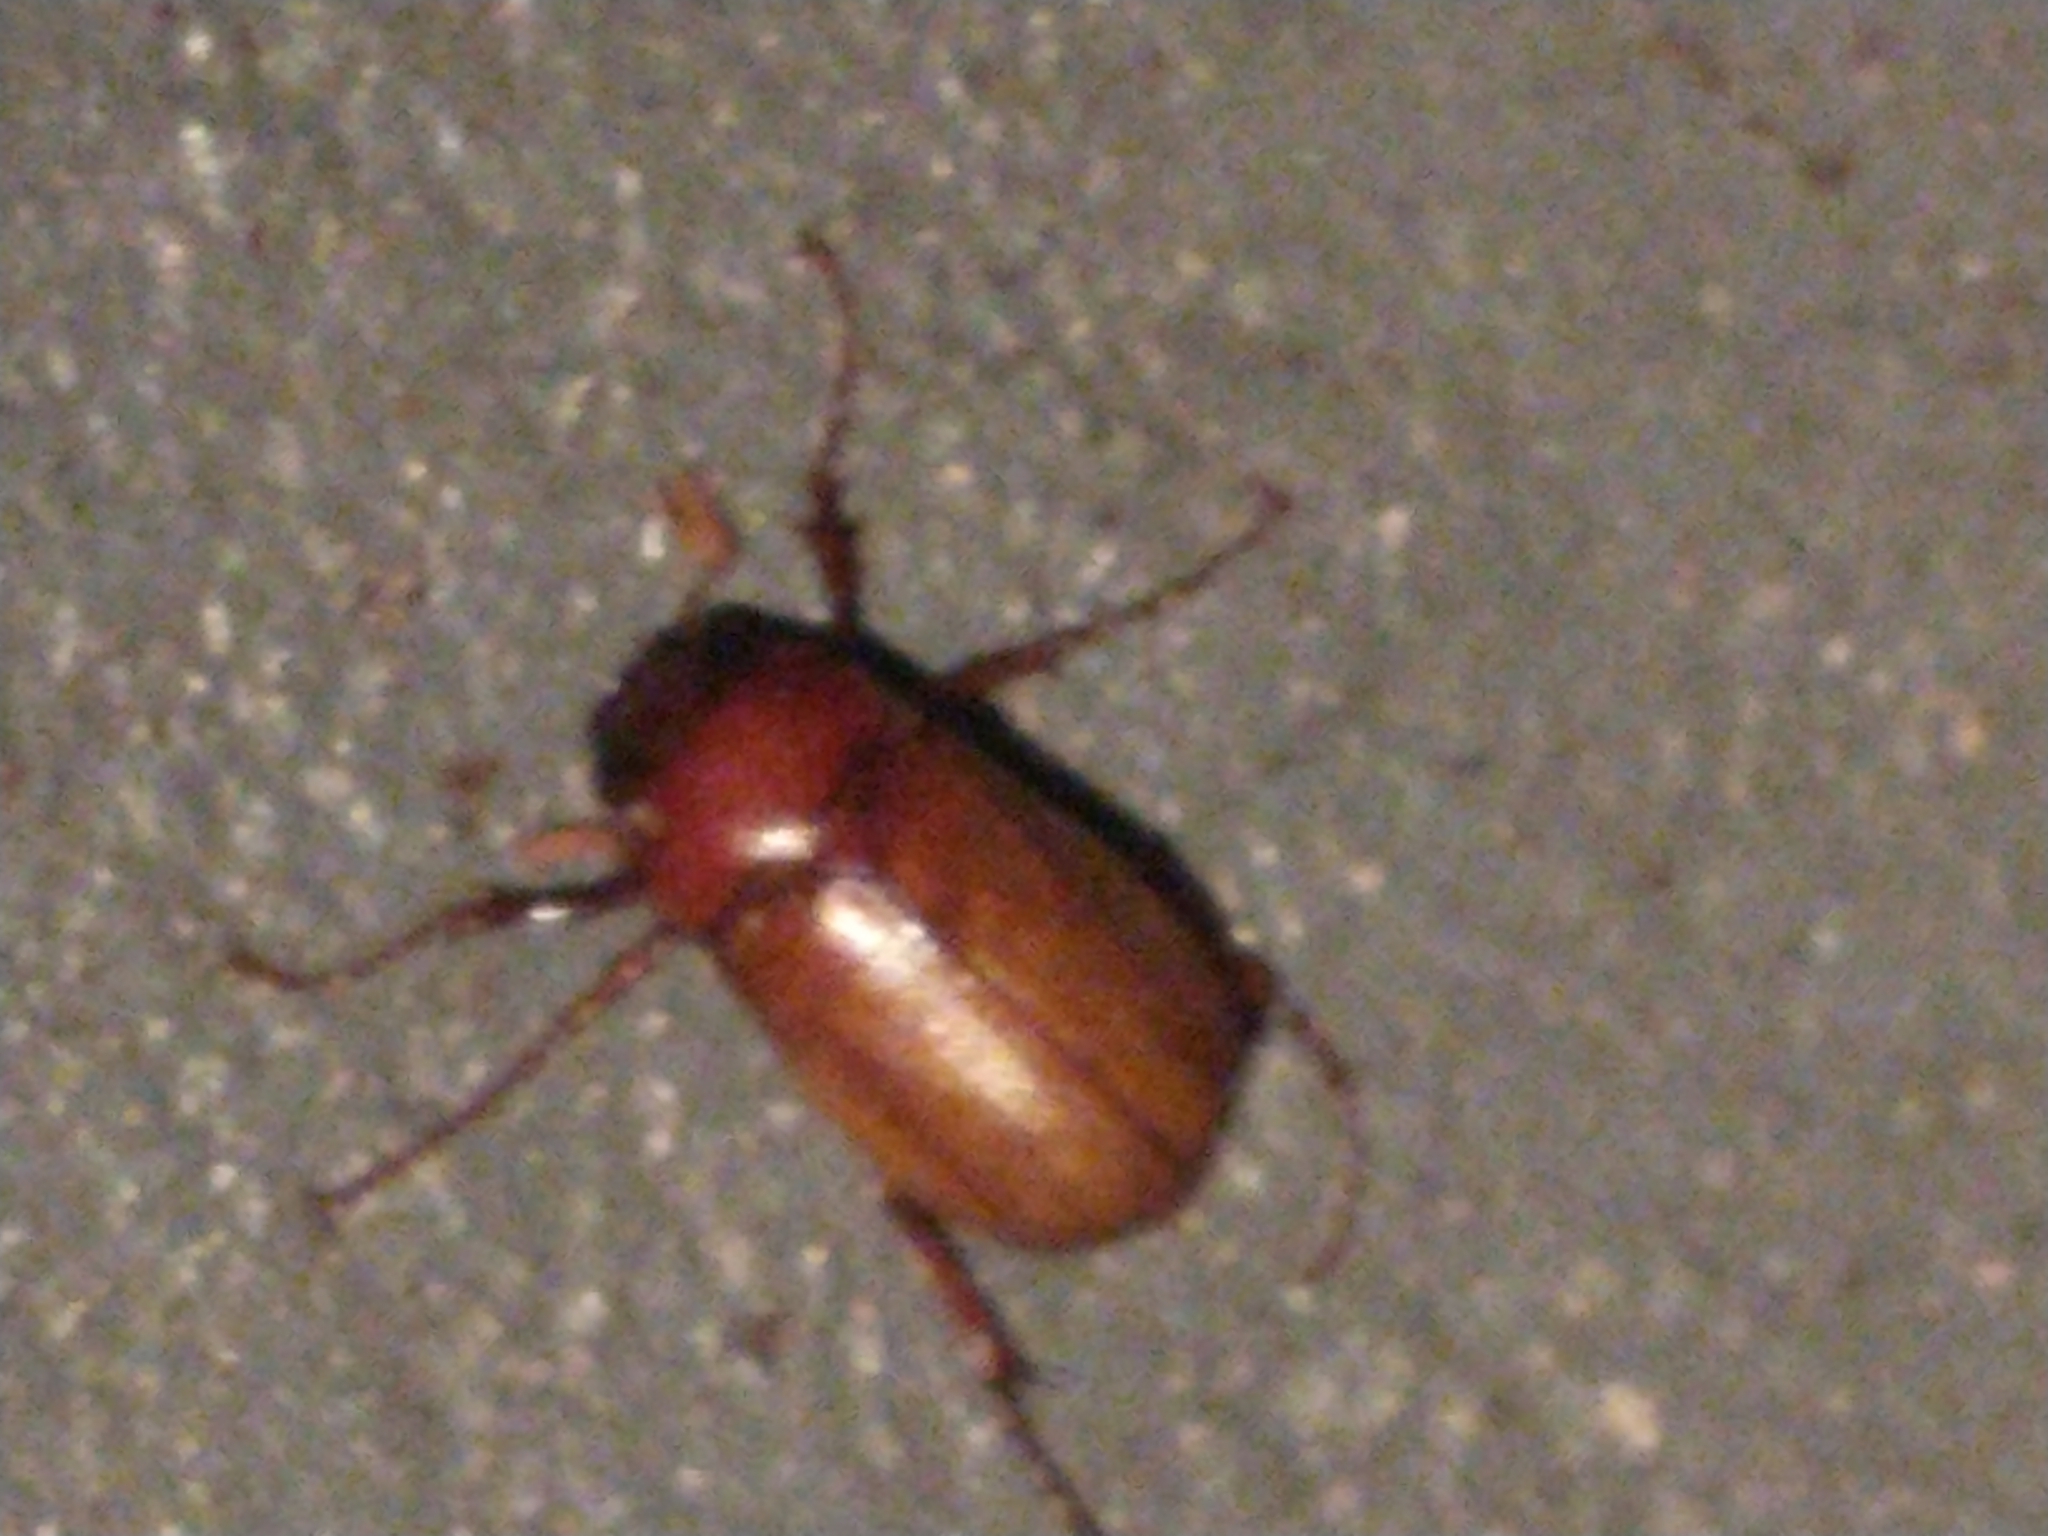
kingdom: Animalia
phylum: Arthropoda
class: Insecta
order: Coleoptera
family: Melolonthidae
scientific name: Melolonthidae
